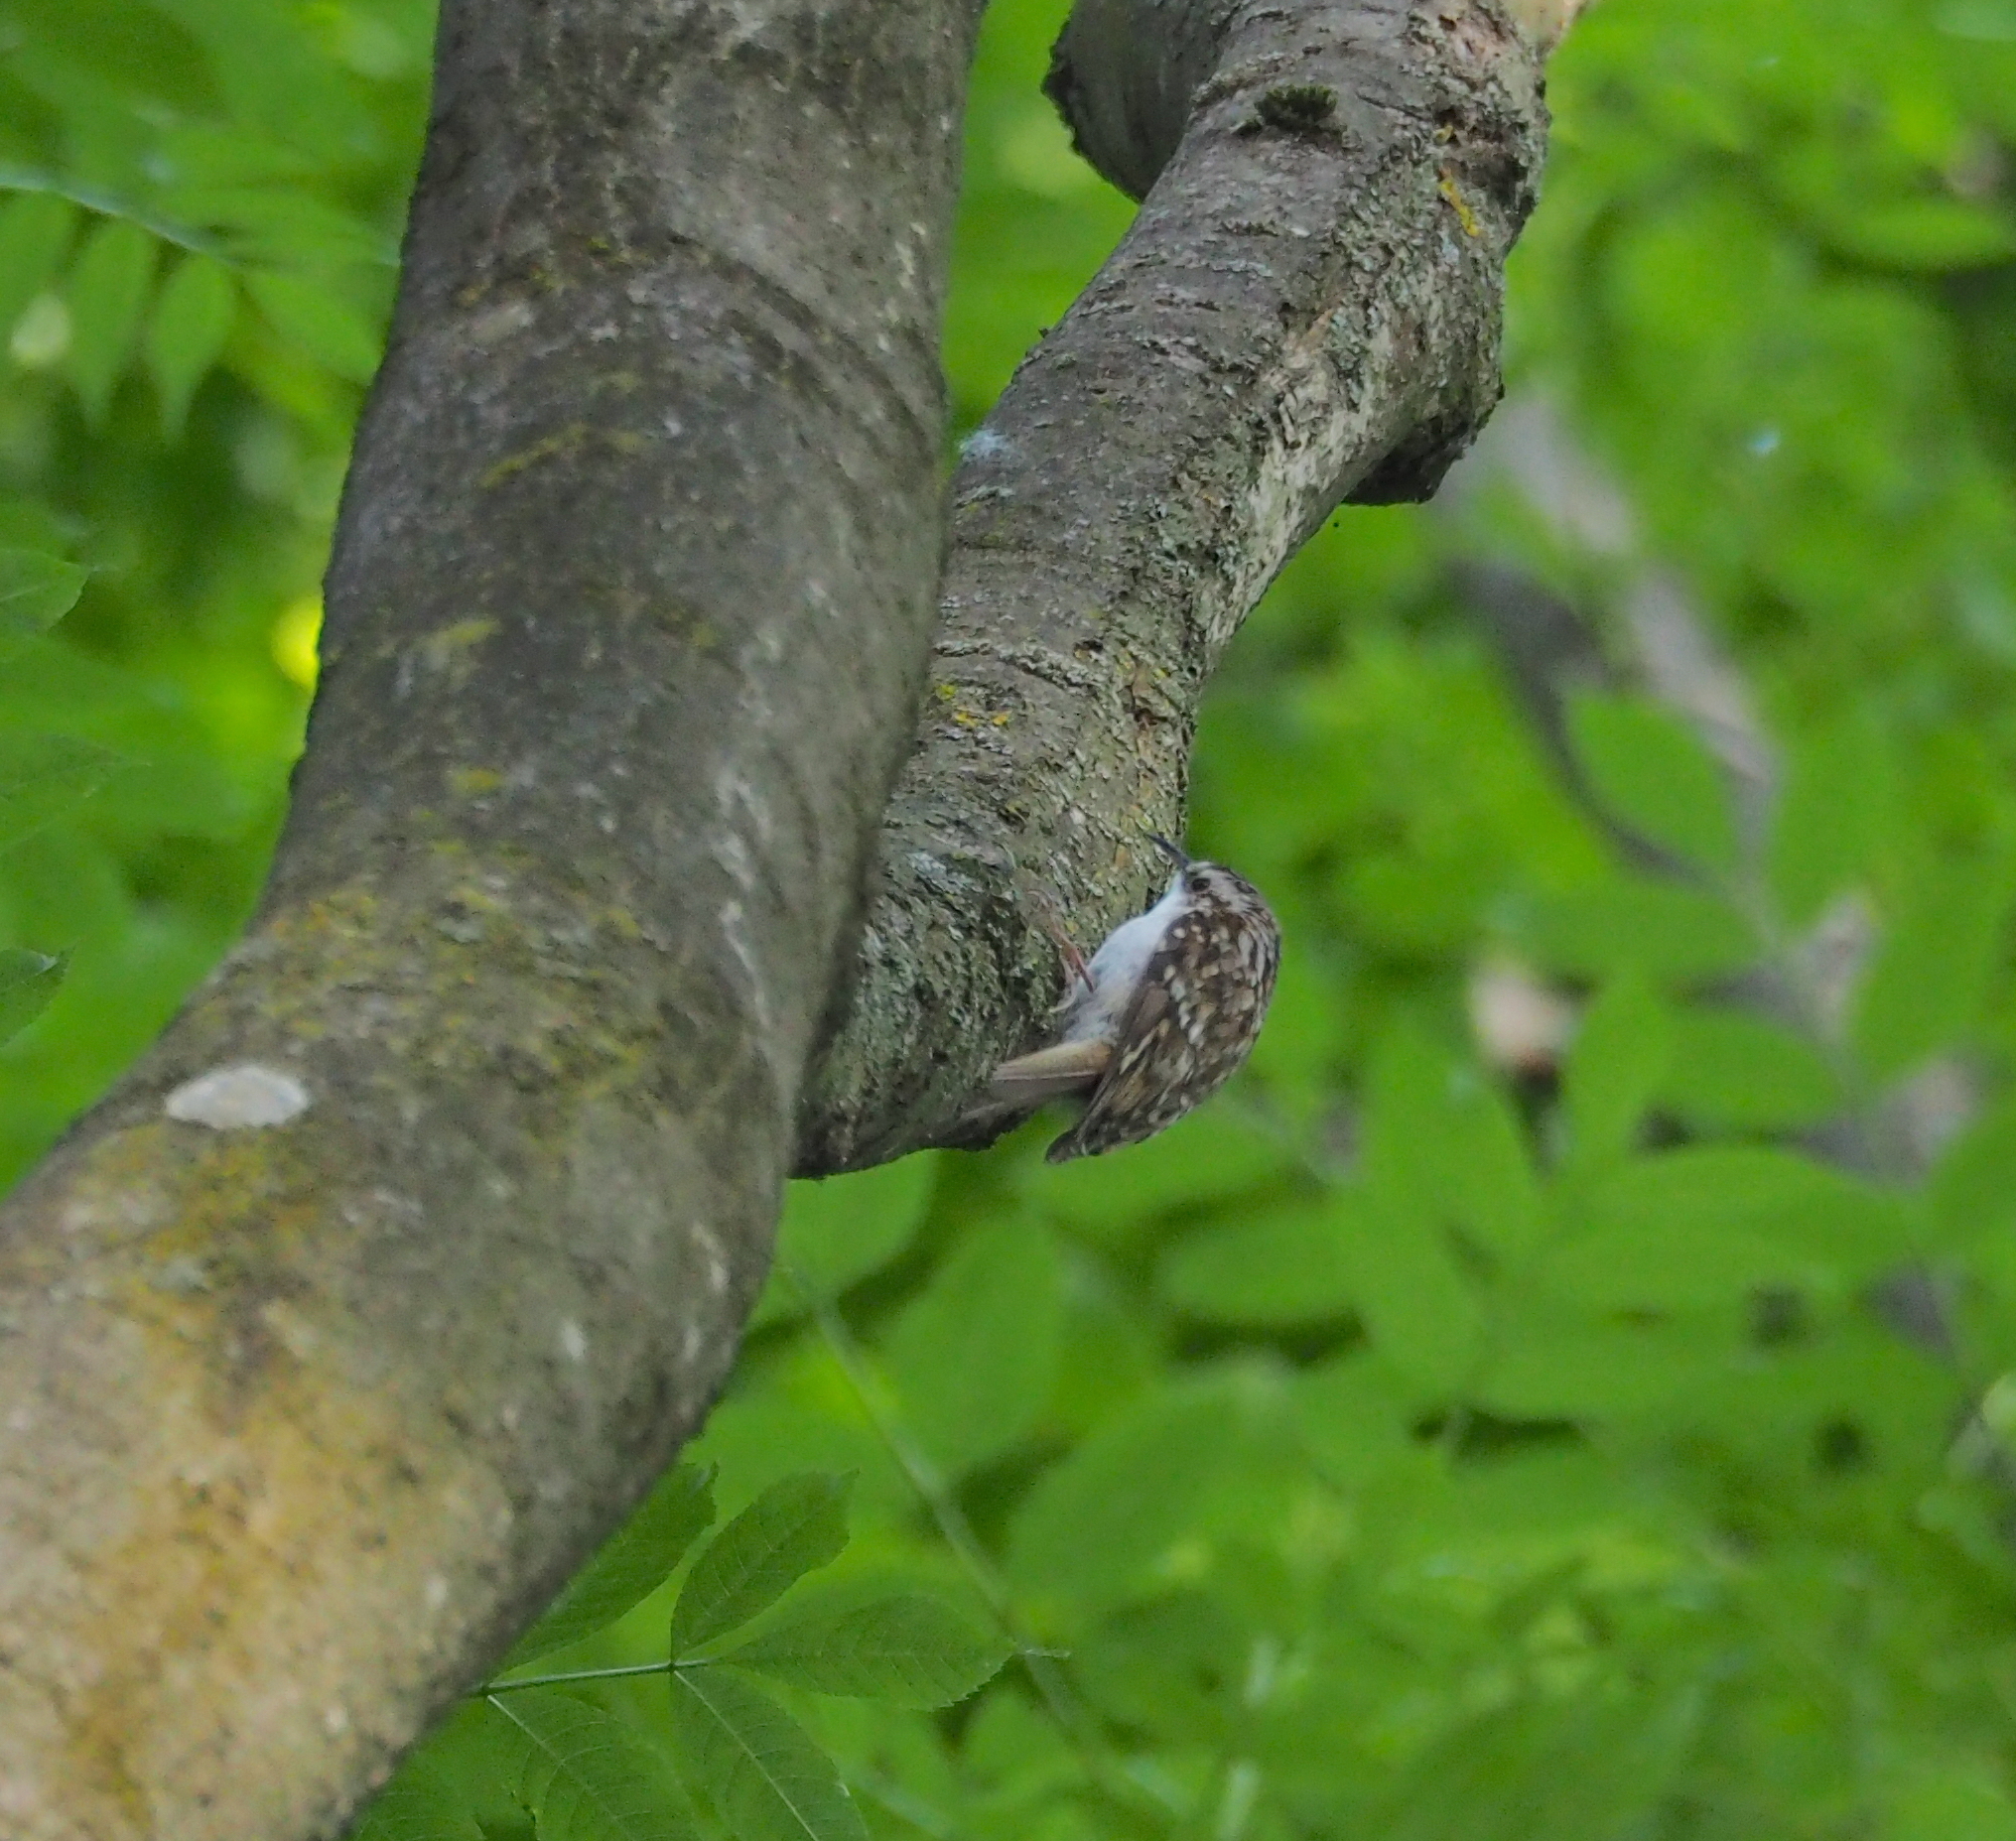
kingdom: Animalia
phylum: Chordata
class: Aves
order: Passeriformes
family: Certhiidae
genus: Certhia
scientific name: Certhia familiaris
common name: Eurasian treecreeper
